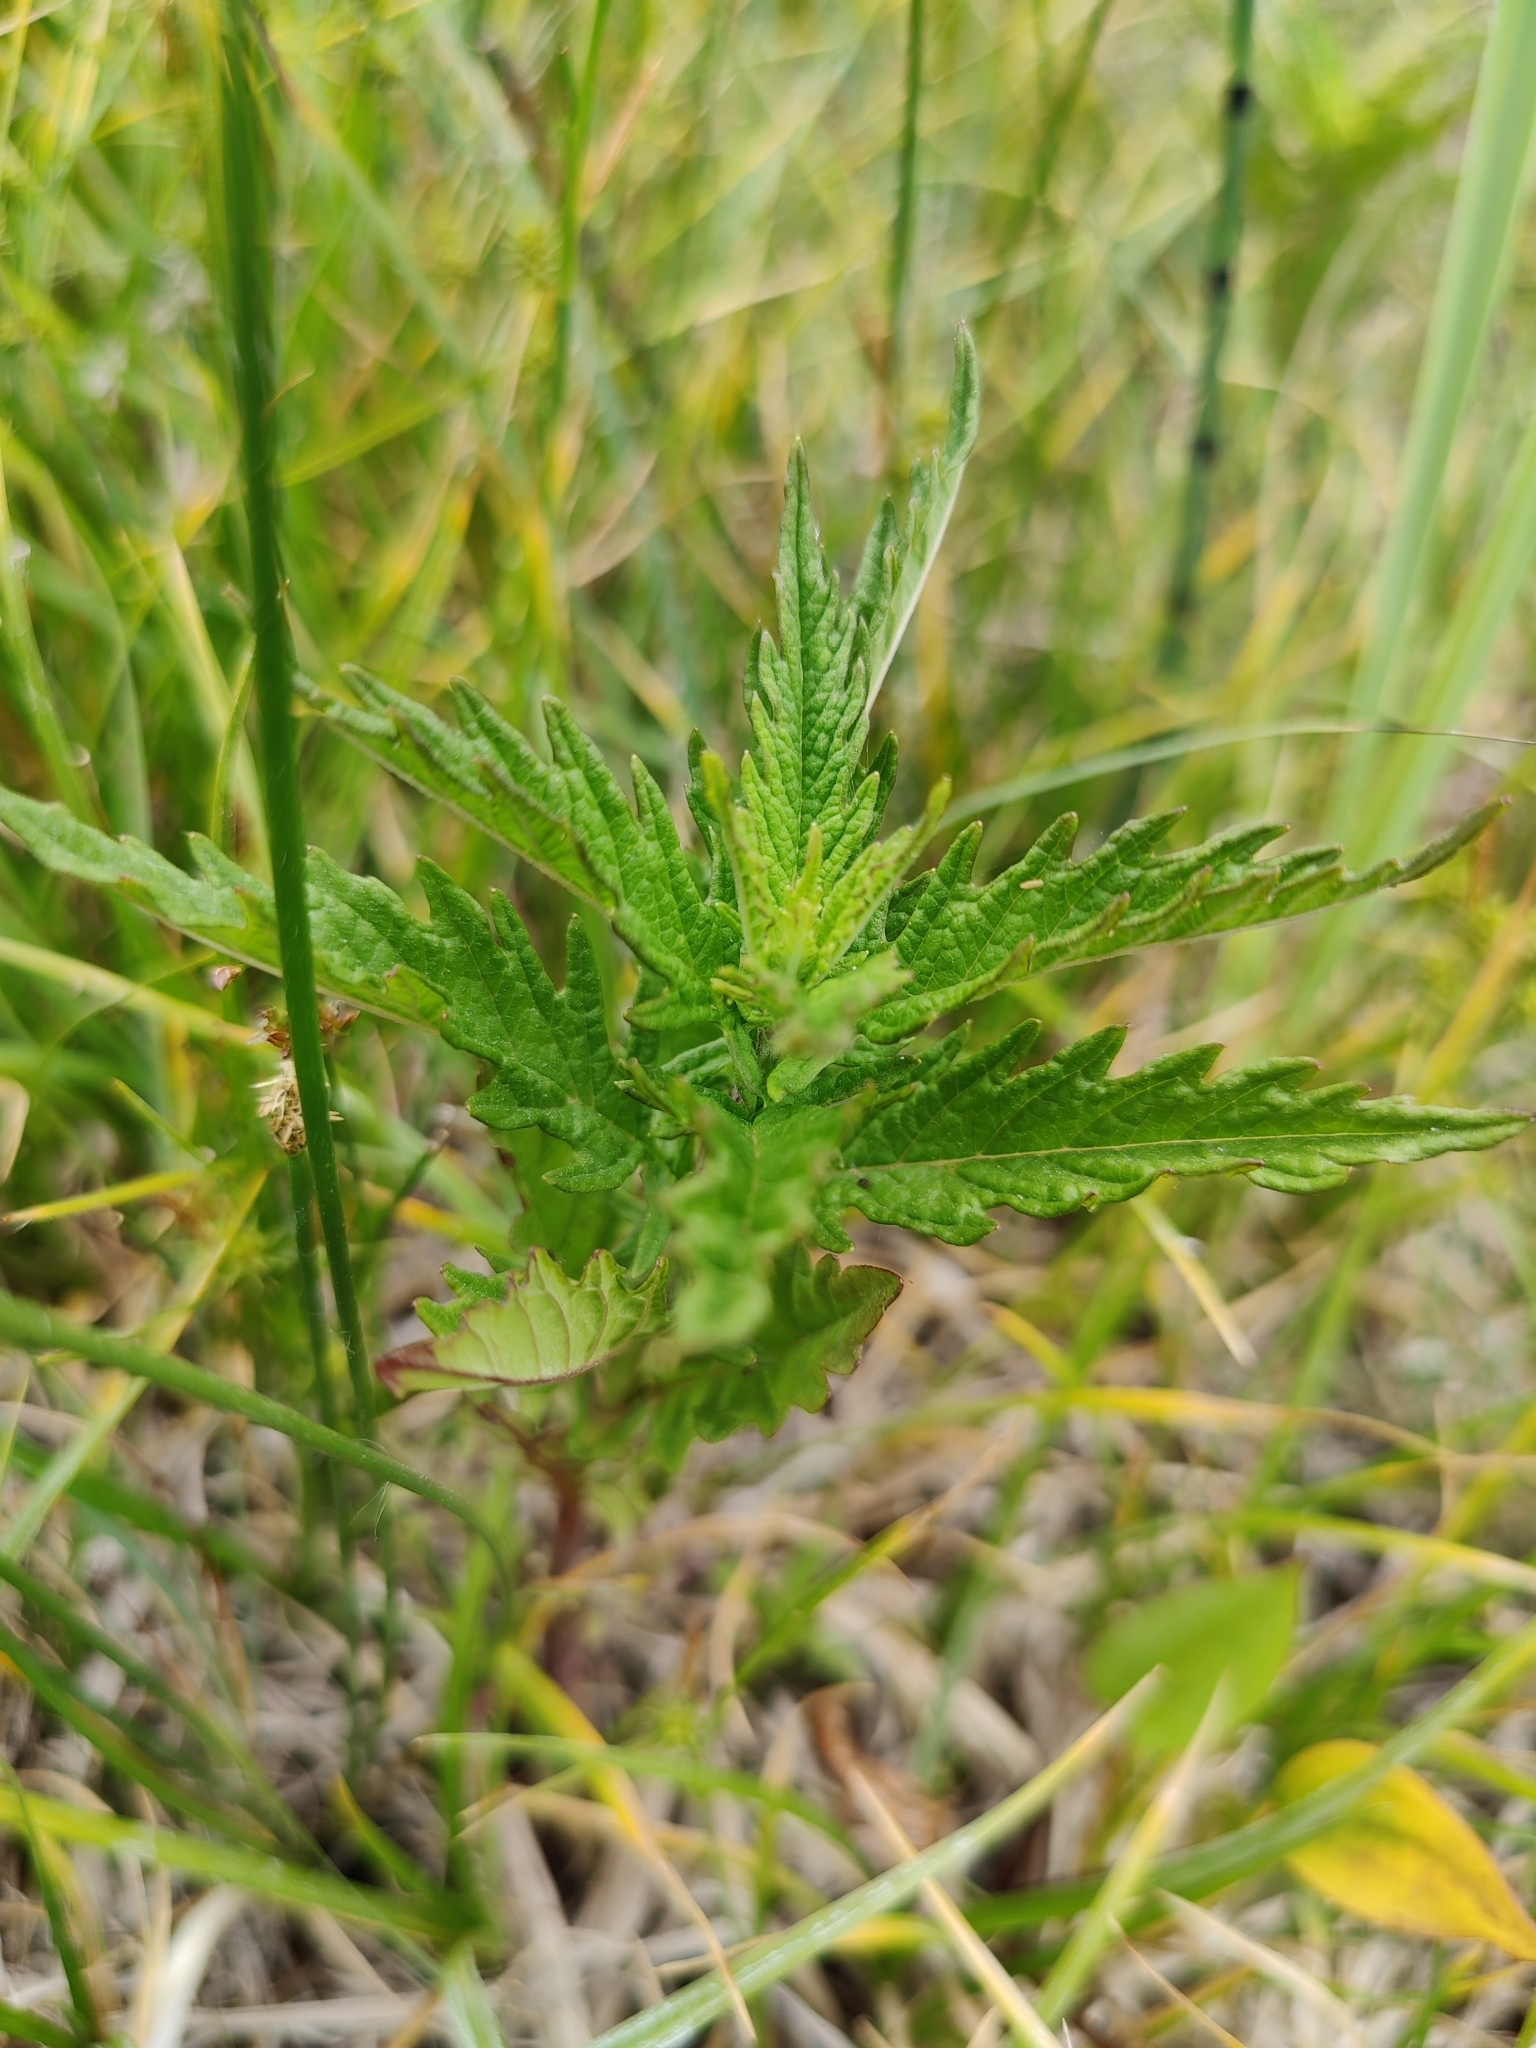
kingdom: Plantae
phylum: Tracheophyta
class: Magnoliopsida
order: Lamiales
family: Lamiaceae
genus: Lycopus
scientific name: Lycopus europaeus
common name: European bugleweed
